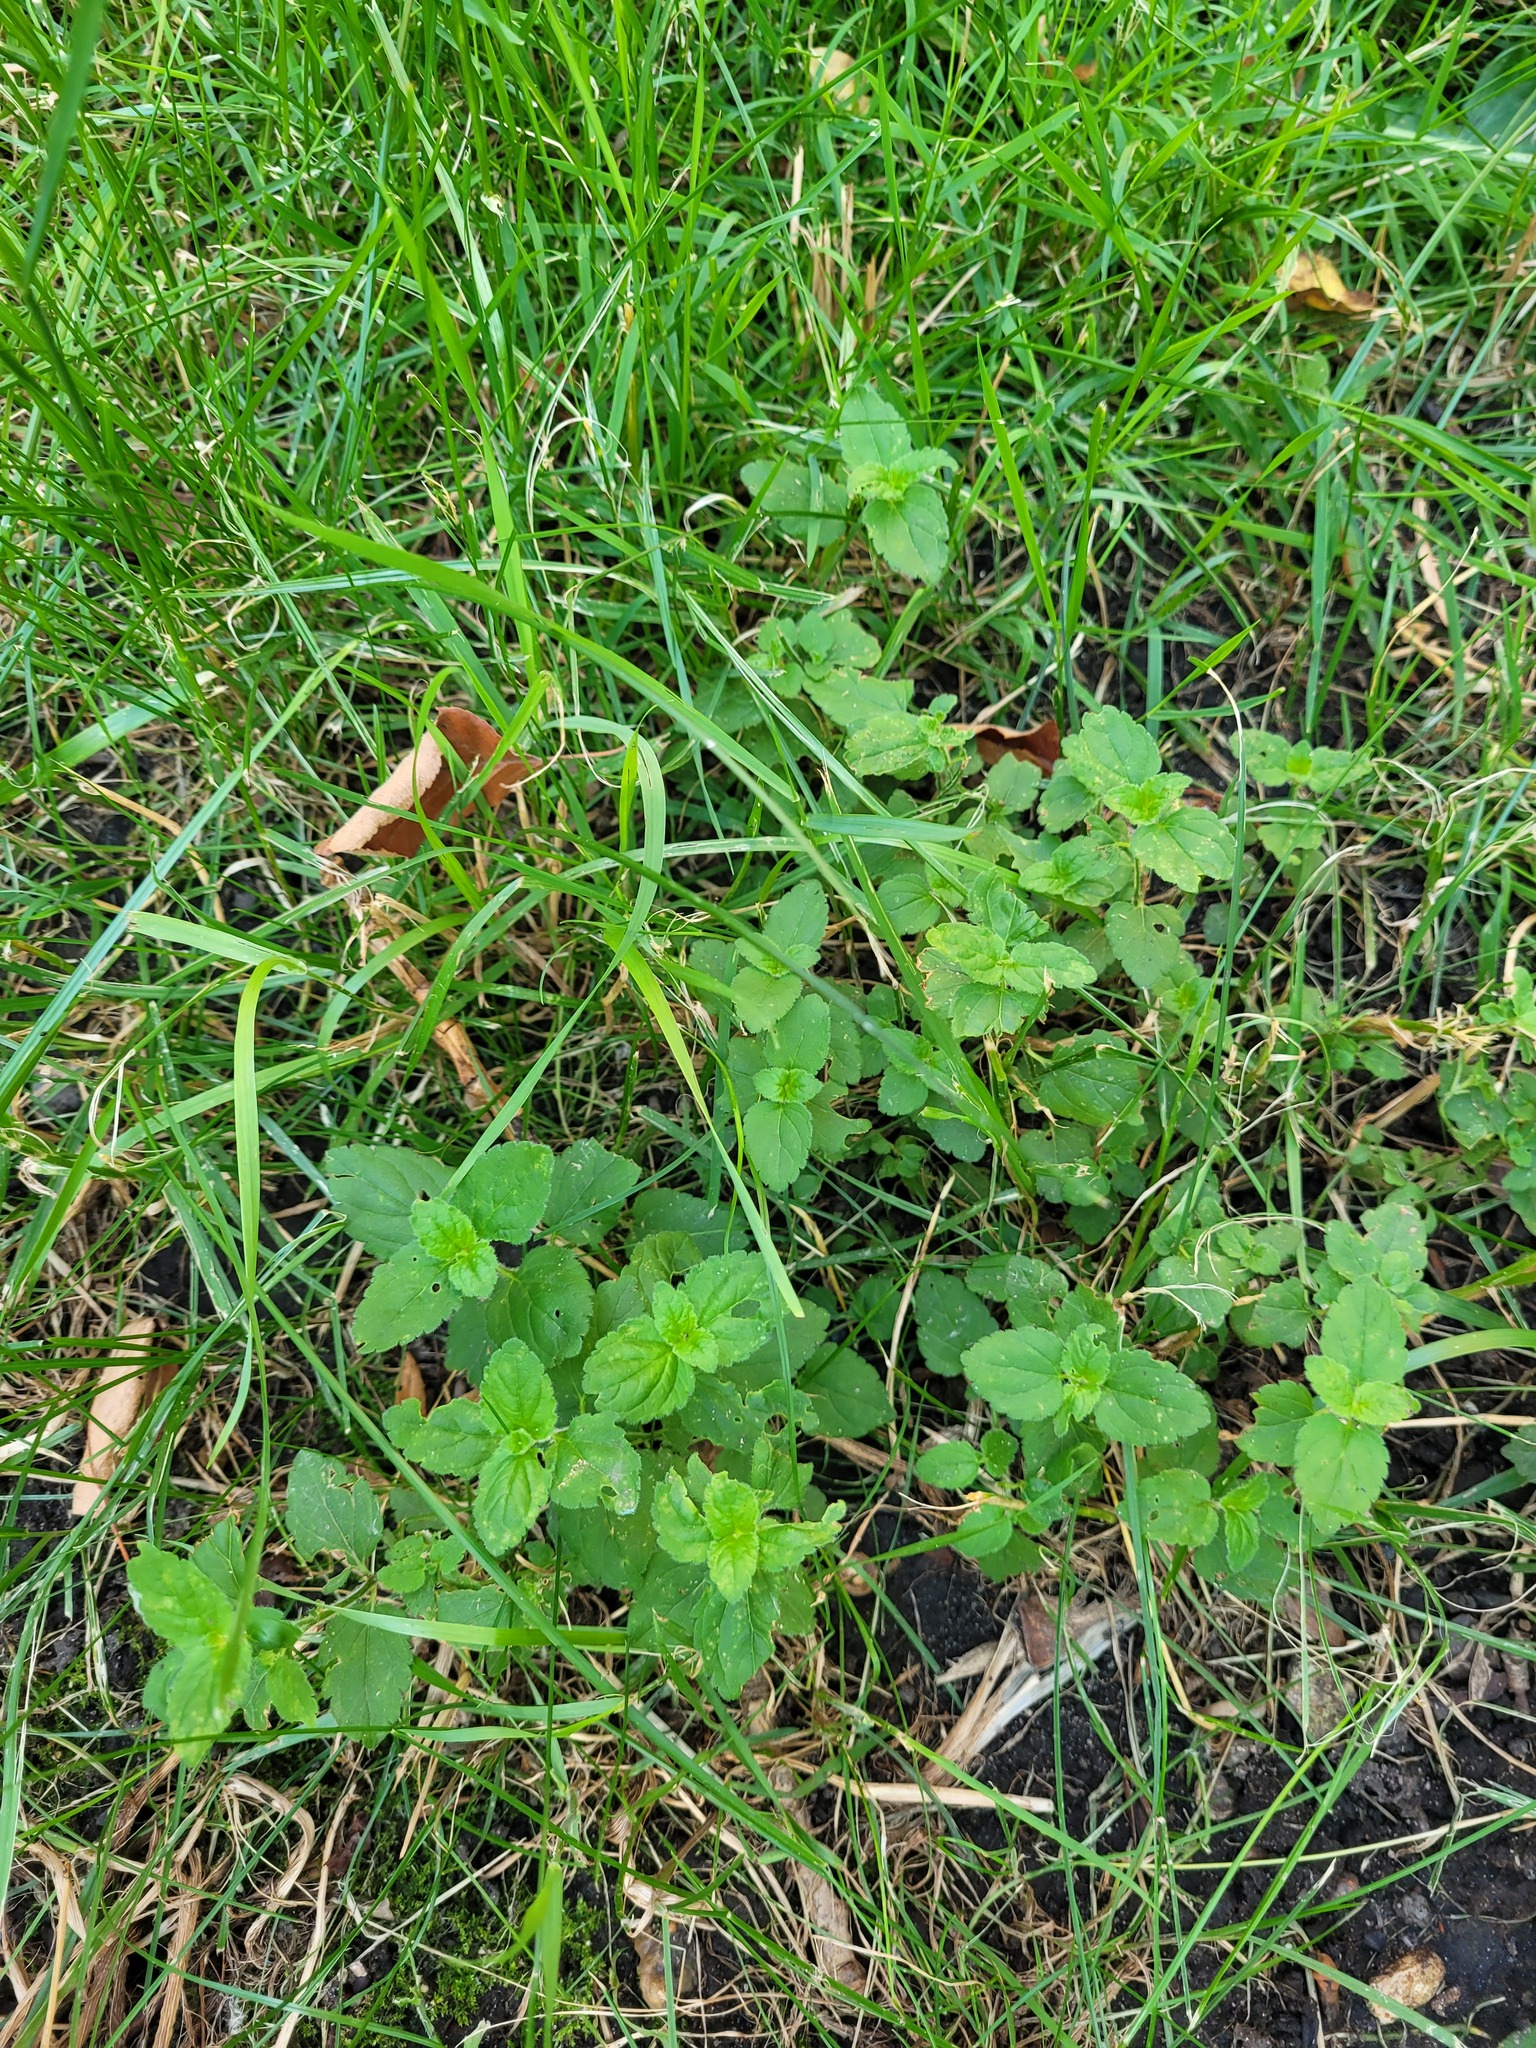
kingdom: Plantae
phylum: Tracheophyta
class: Magnoliopsida
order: Lamiales
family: Plantaginaceae
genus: Veronica
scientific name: Veronica chamaedrys
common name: Germander speedwell
